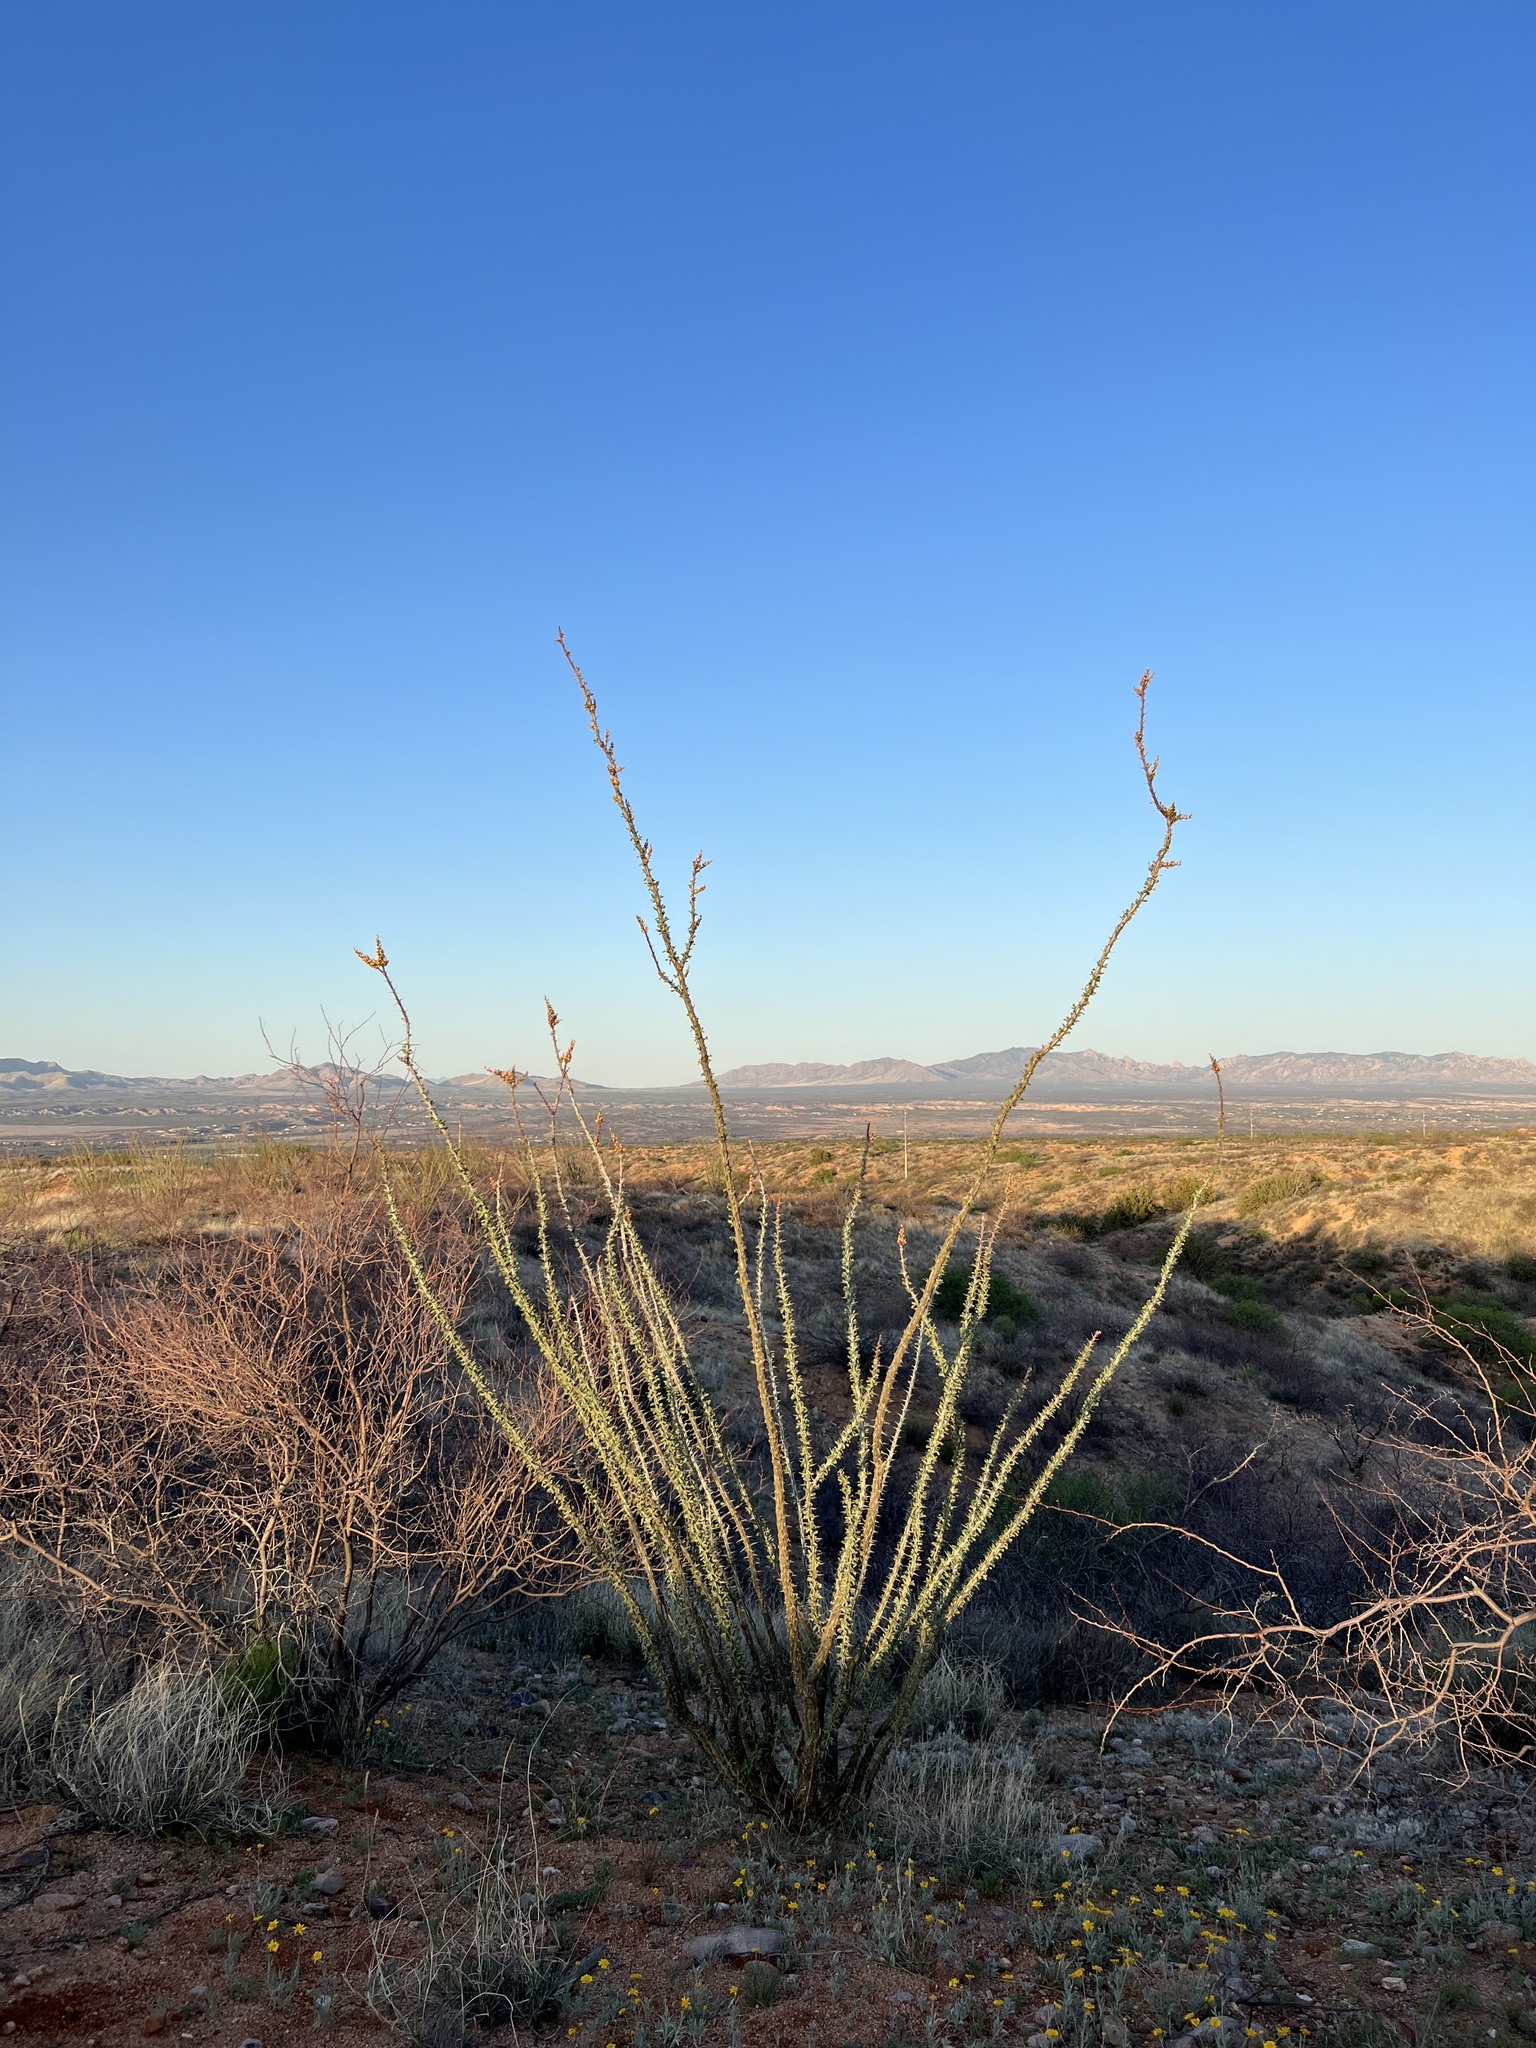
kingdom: Plantae
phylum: Tracheophyta
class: Magnoliopsida
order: Ericales
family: Fouquieriaceae
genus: Fouquieria
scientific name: Fouquieria splendens
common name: Vine-cactus
